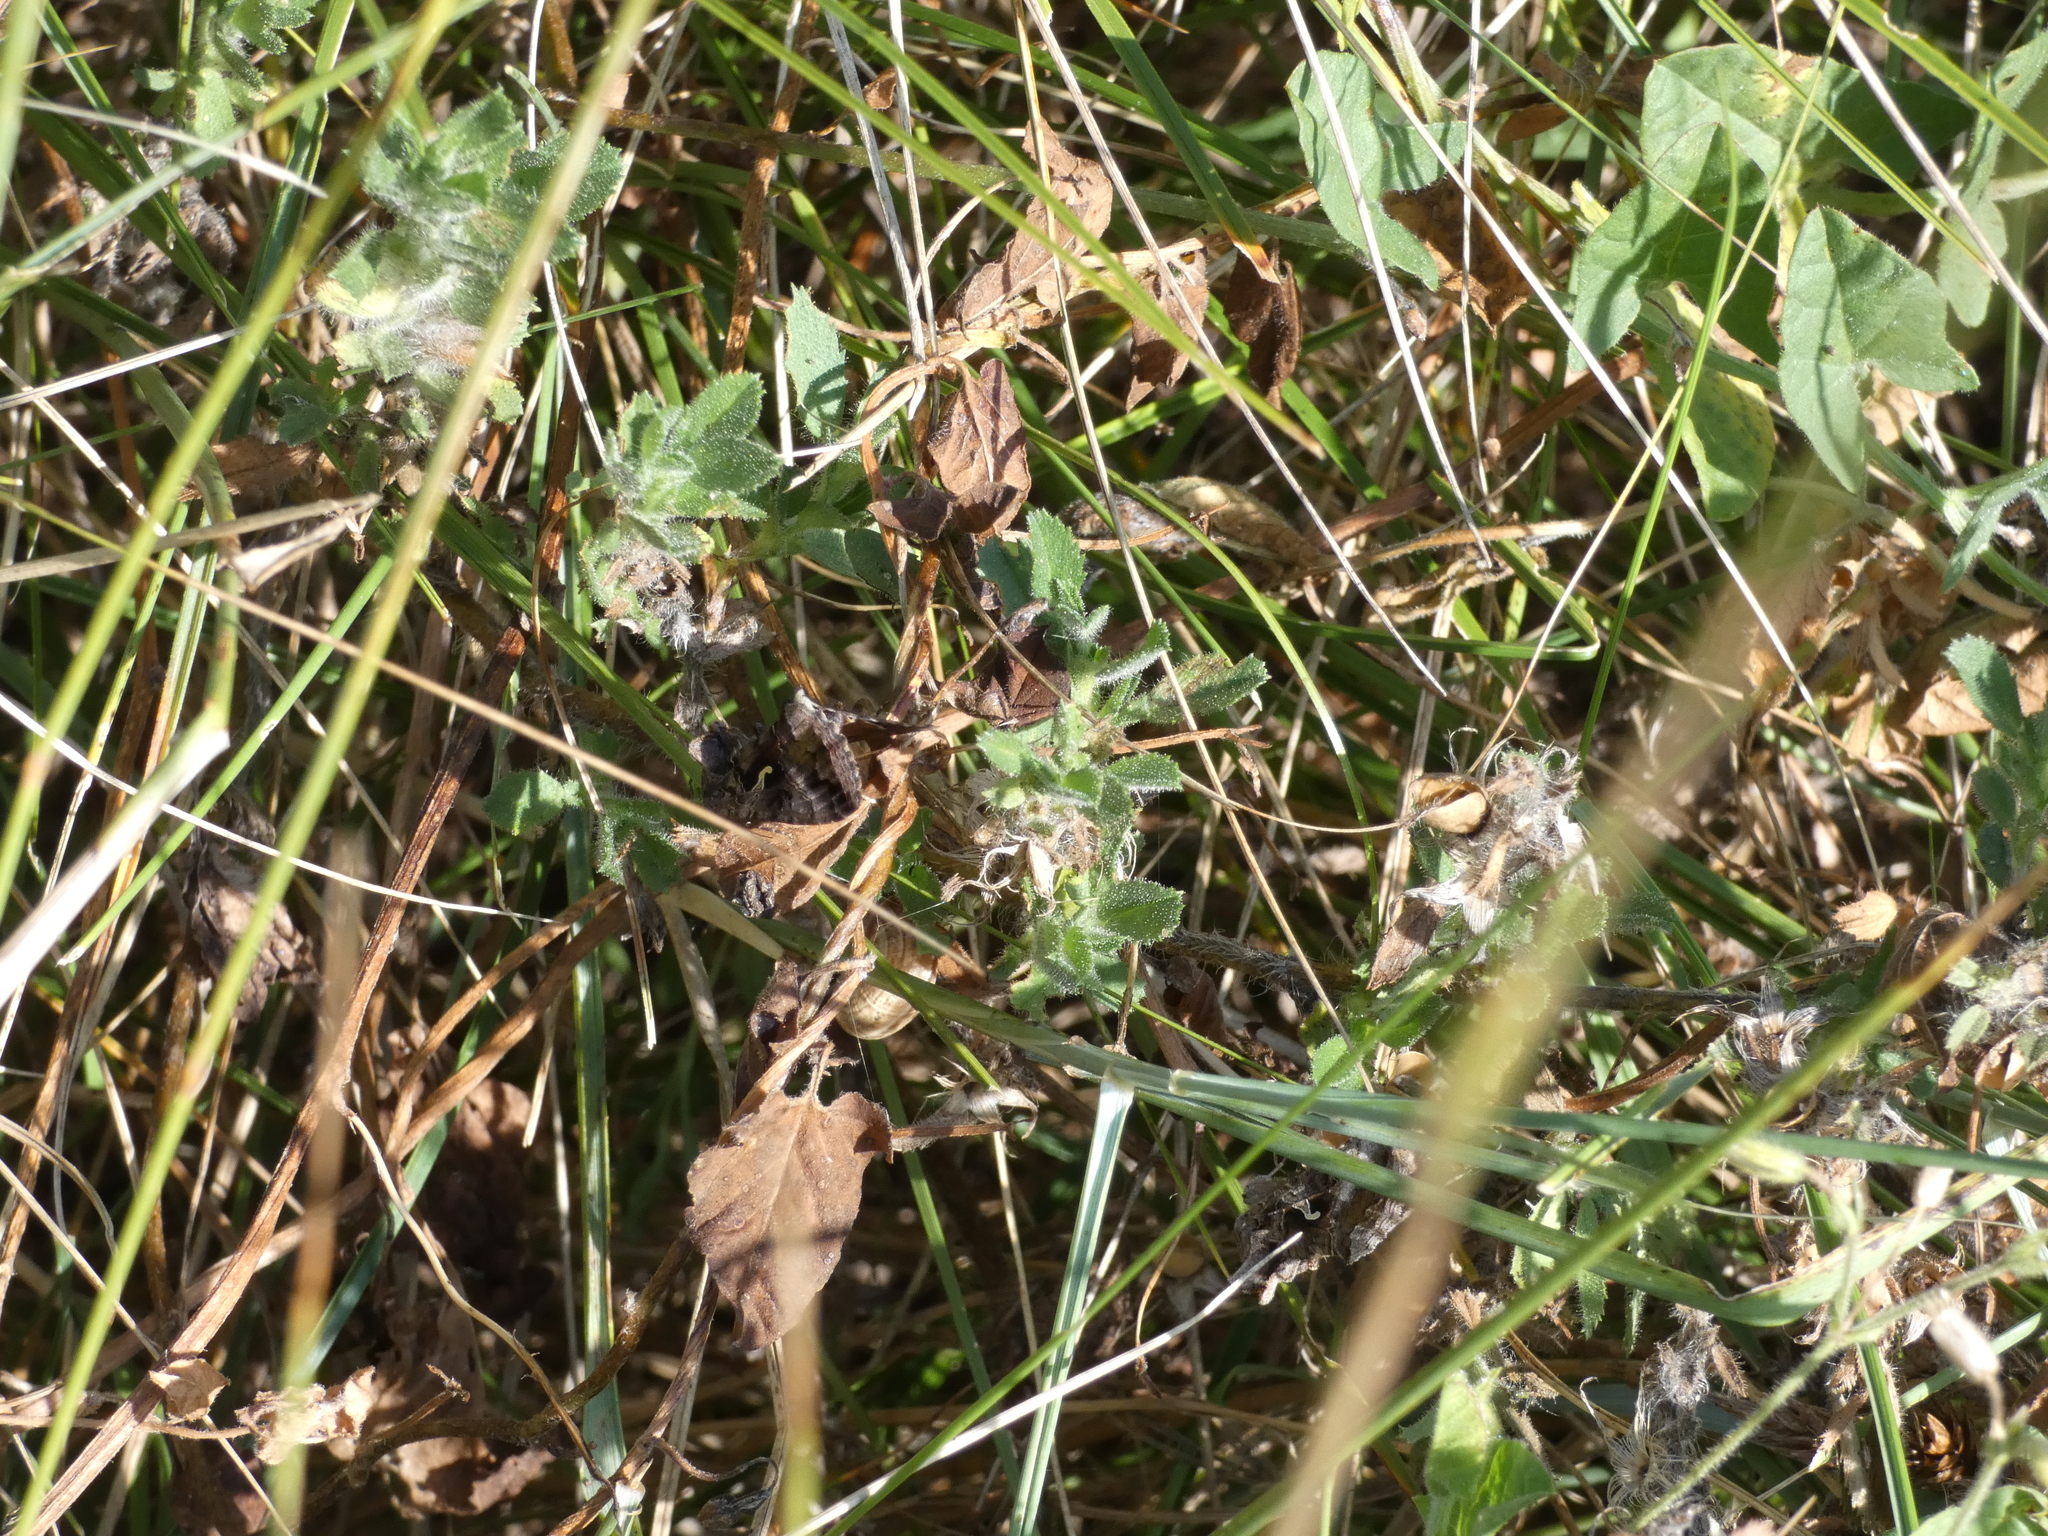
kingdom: Animalia
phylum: Arthropoda
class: Insecta
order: Lepidoptera
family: Noctuidae
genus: Autographa
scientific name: Autographa gamma
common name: Silver y
